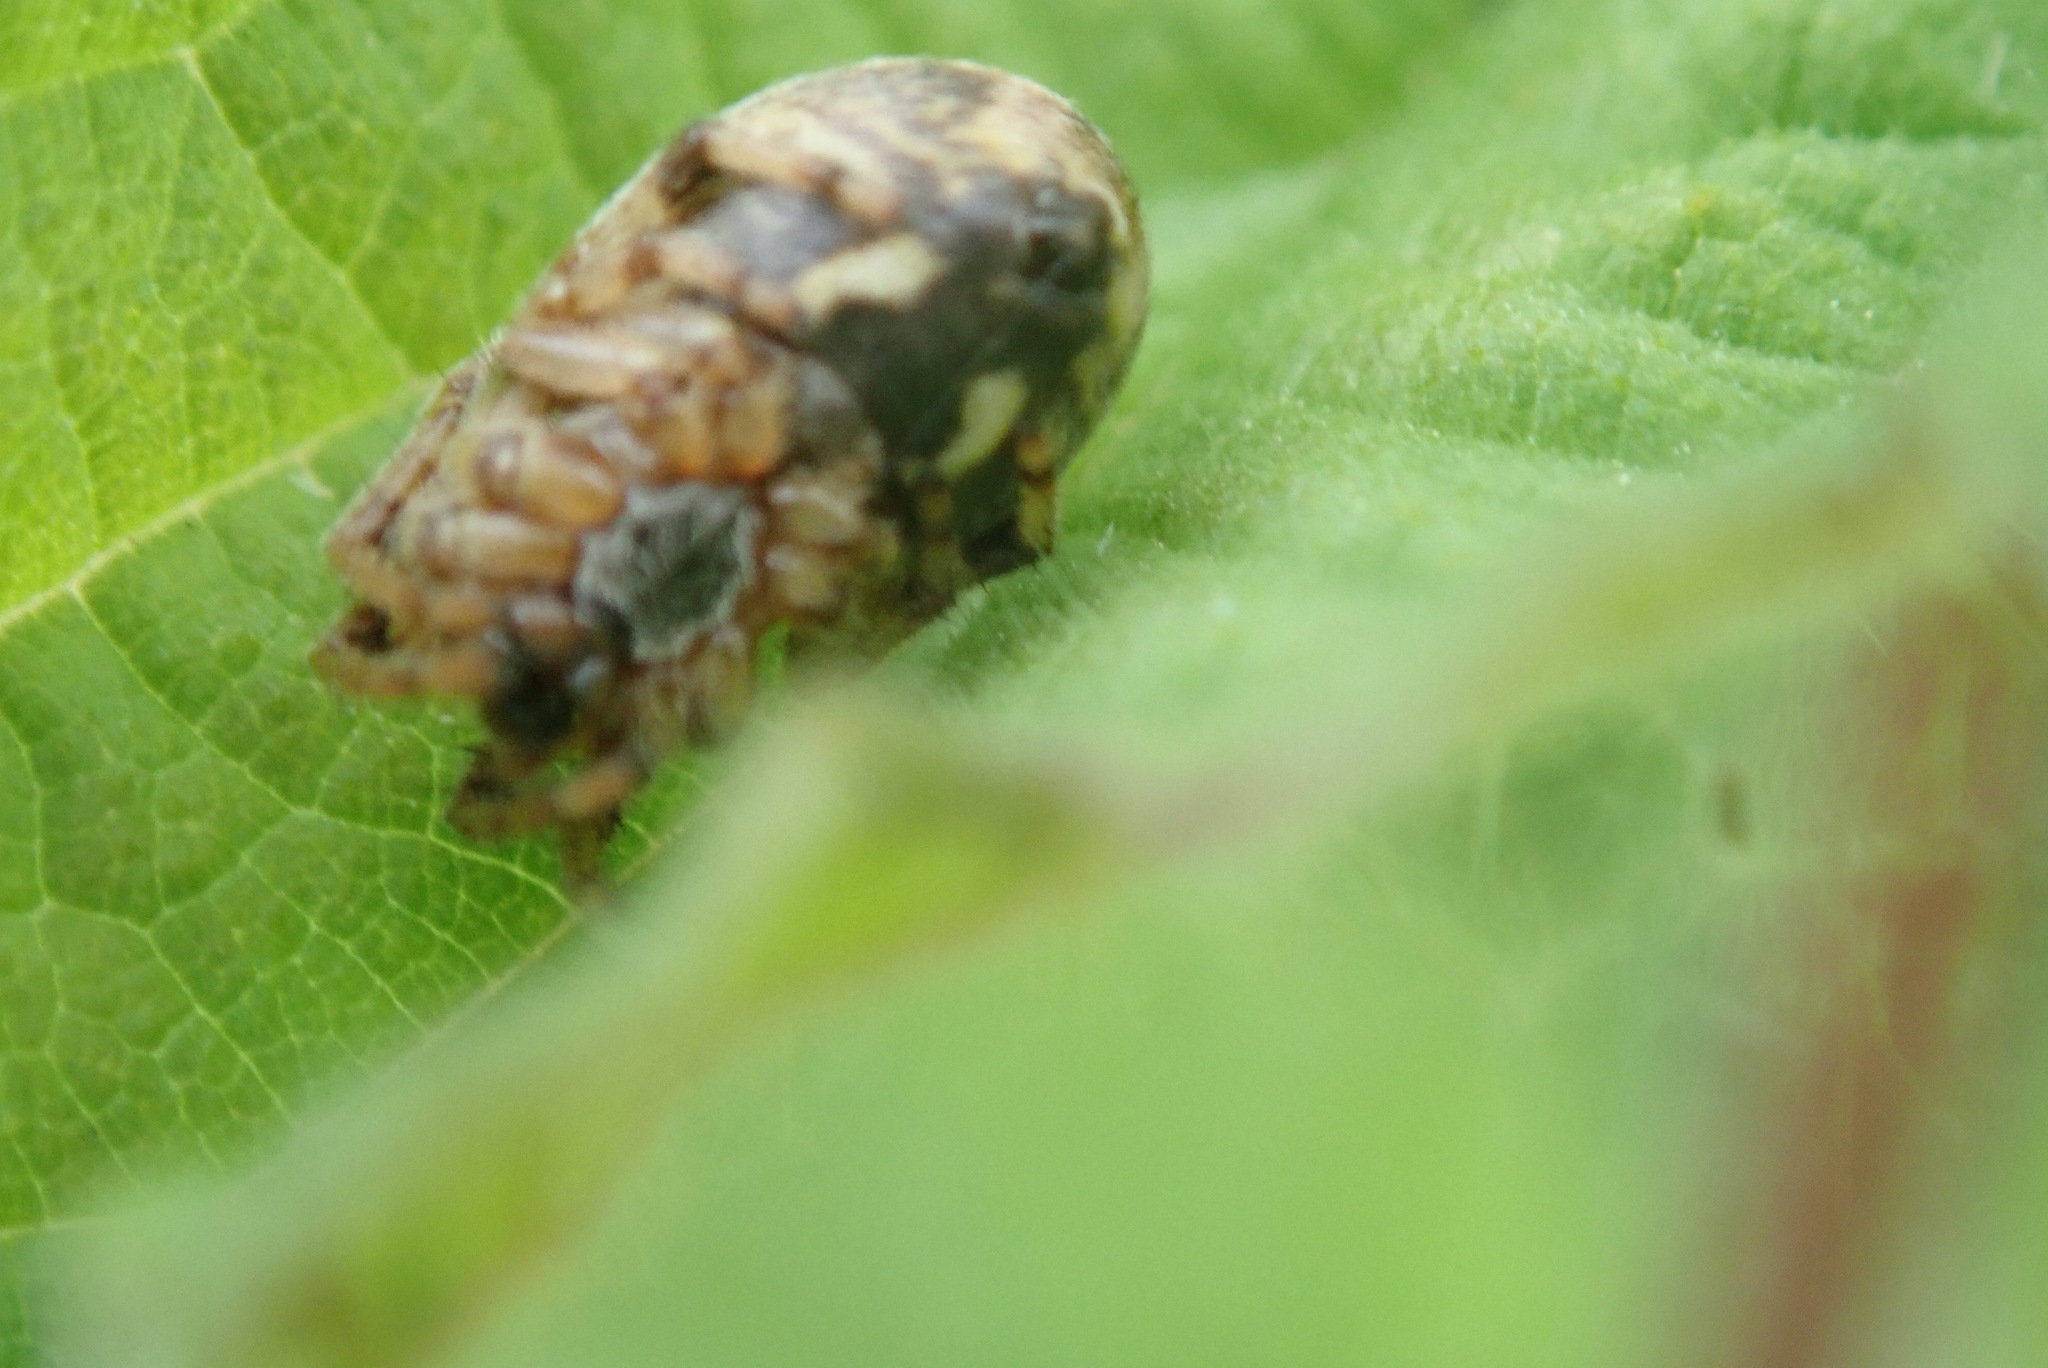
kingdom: Animalia
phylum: Arthropoda
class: Arachnida
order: Araneae
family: Araneidae
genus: Larinioides
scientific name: Larinioides cornutus
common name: Furrow orbweaver
